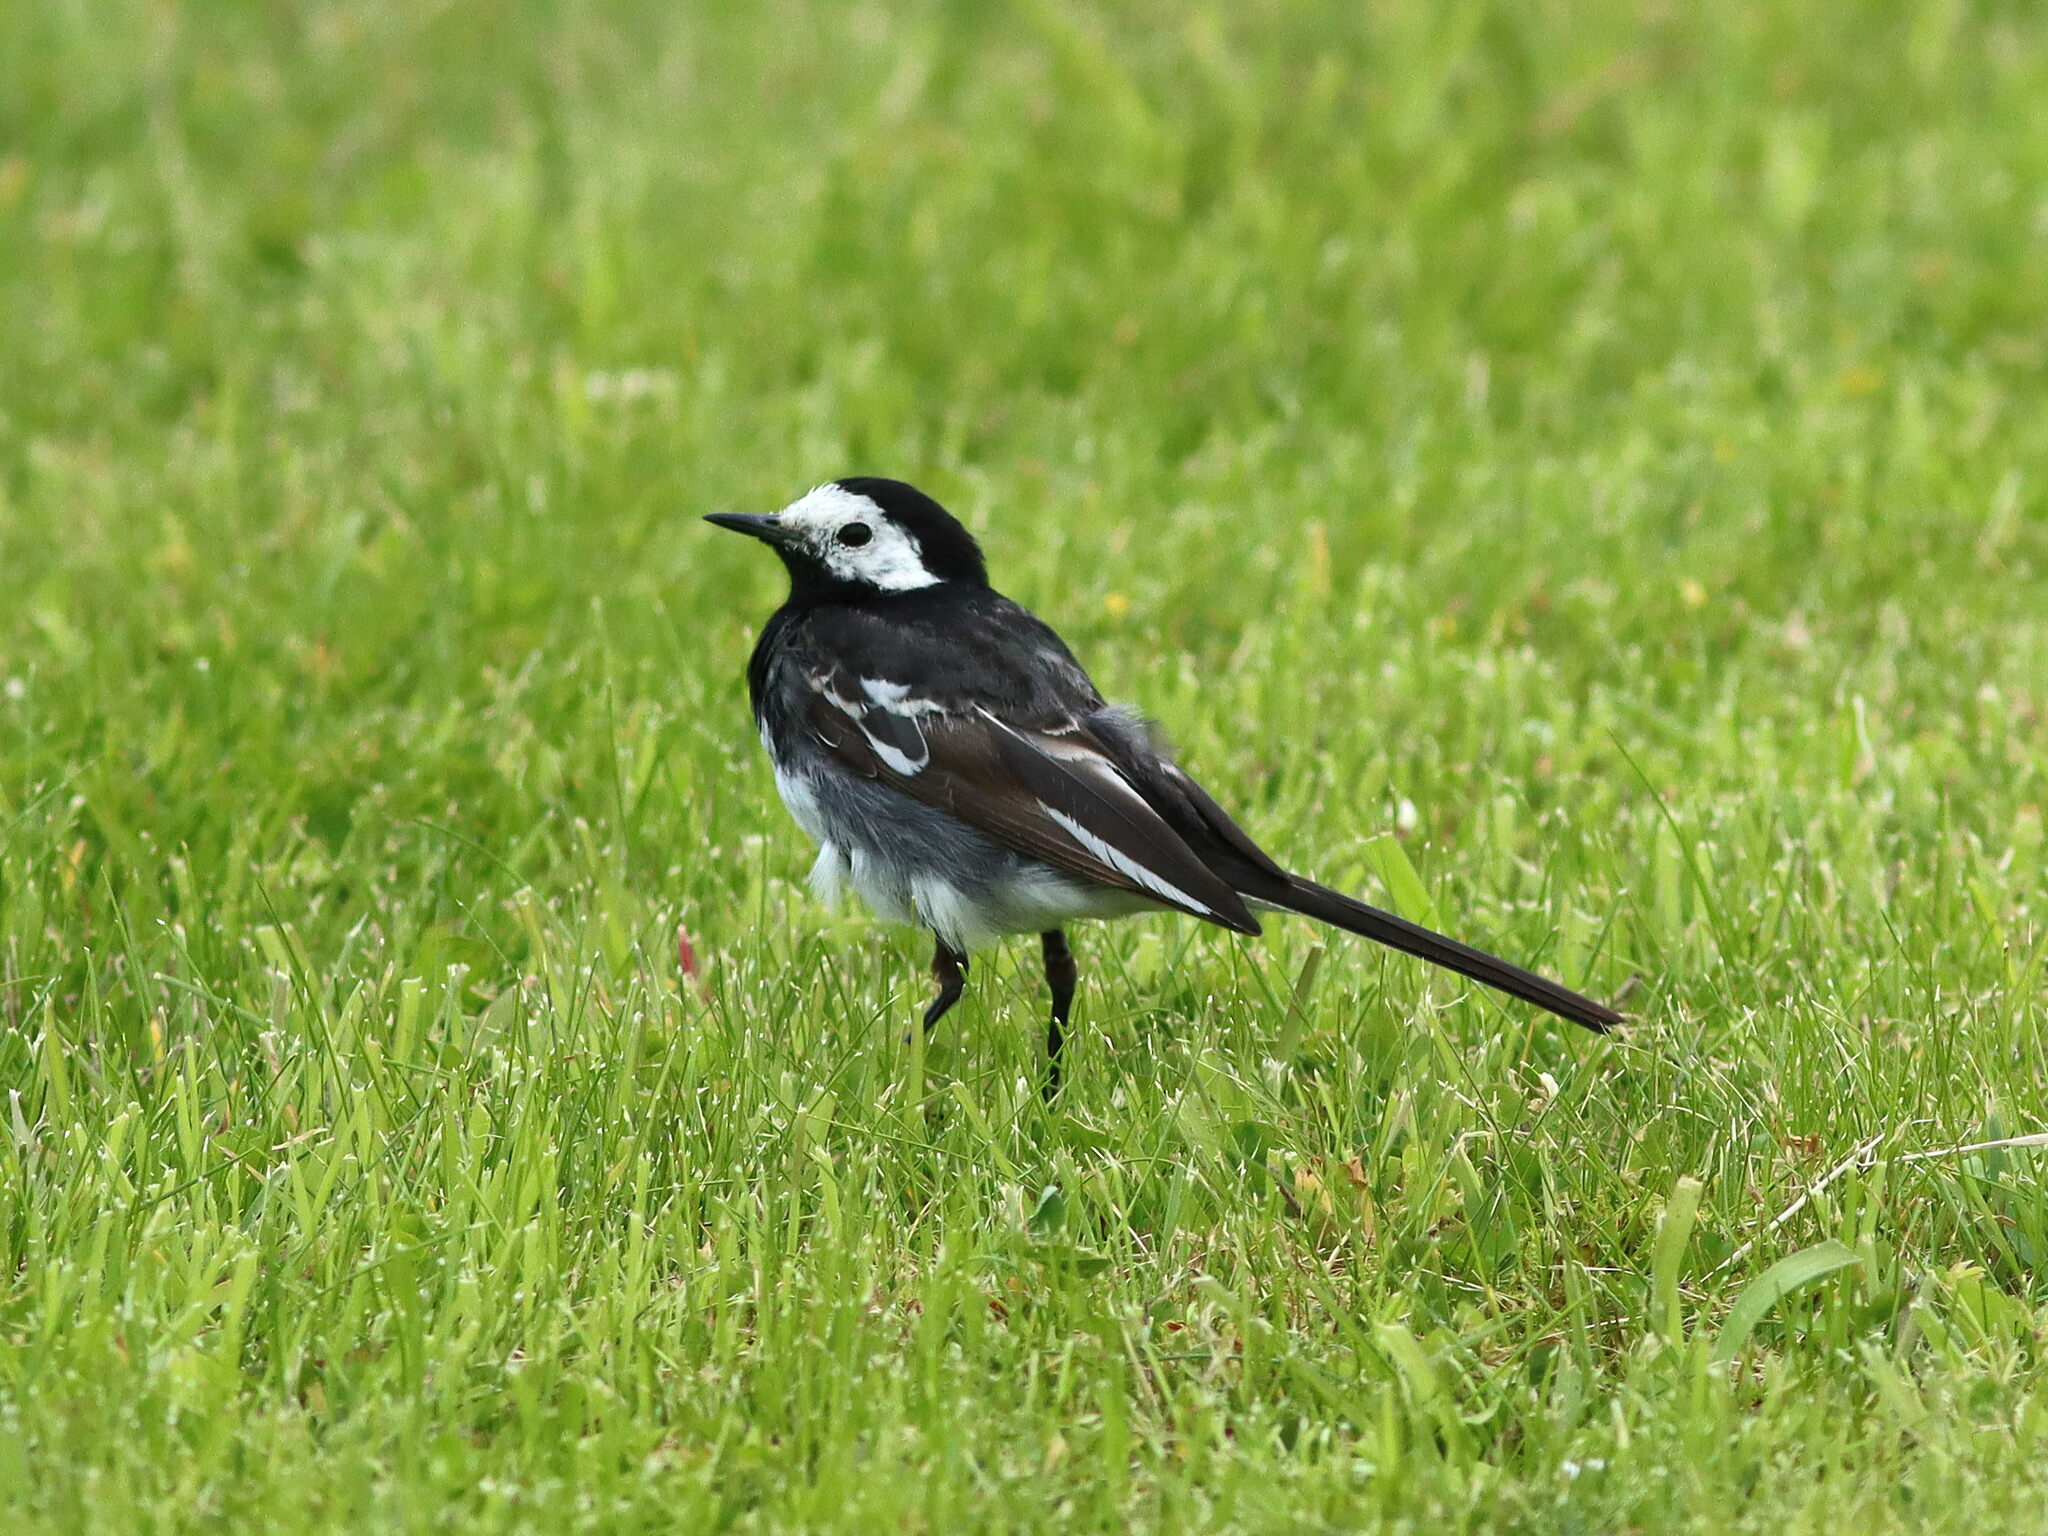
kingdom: Animalia
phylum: Chordata
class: Aves
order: Passeriformes
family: Motacillidae
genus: Motacilla
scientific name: Motacilla alba
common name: White wagtail
